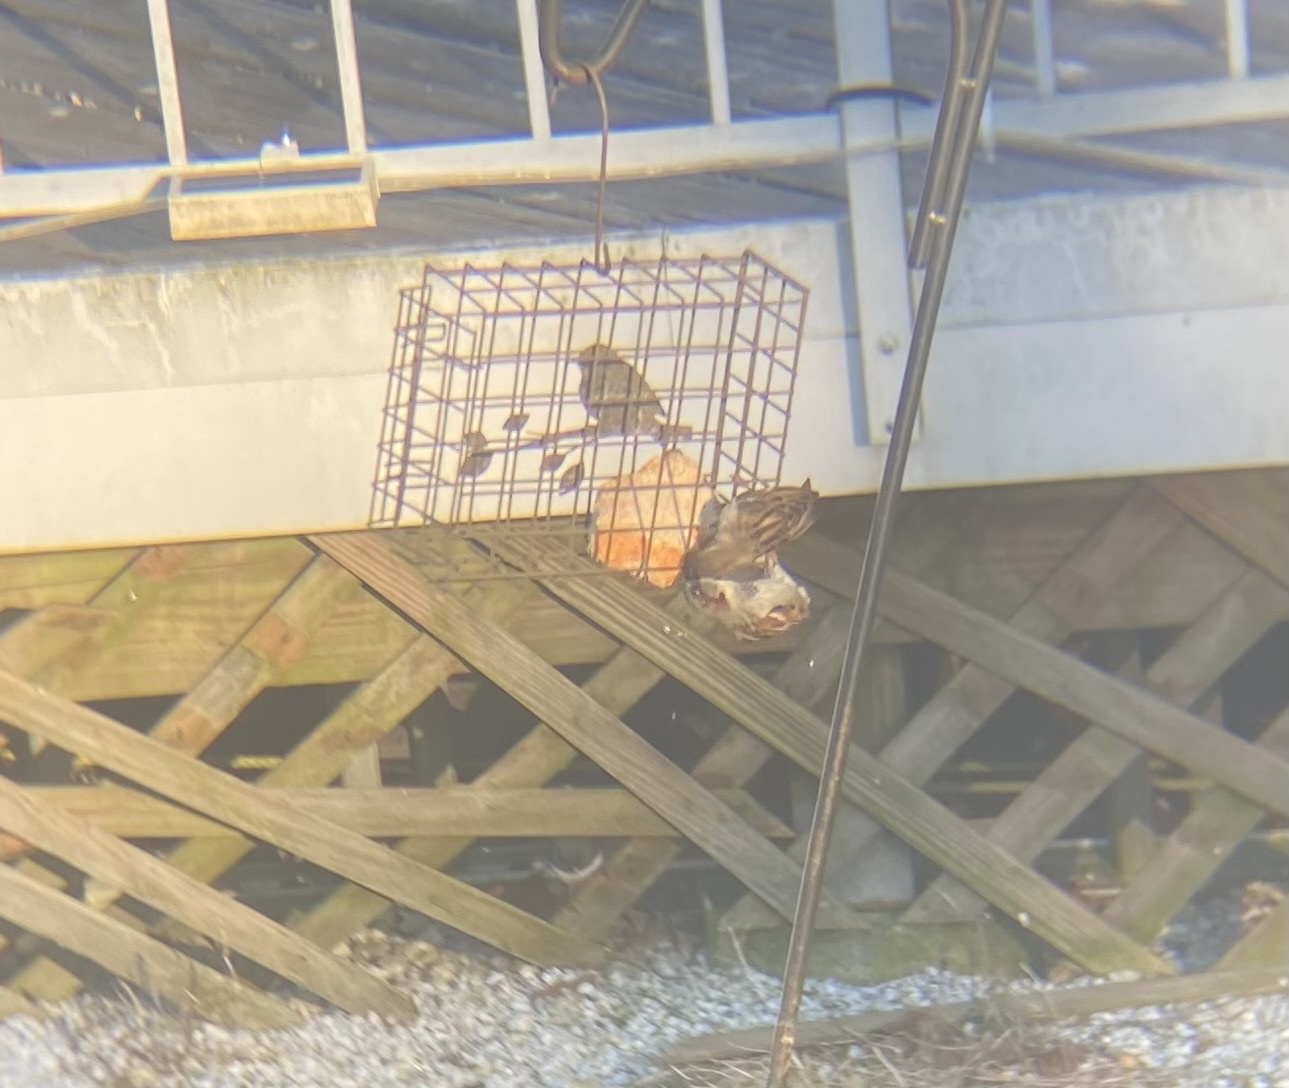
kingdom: Animalia
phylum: Chordata
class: Aves
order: Passeriformes
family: Passeridae
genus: Passer
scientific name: Passer domesticus
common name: House sparrow
